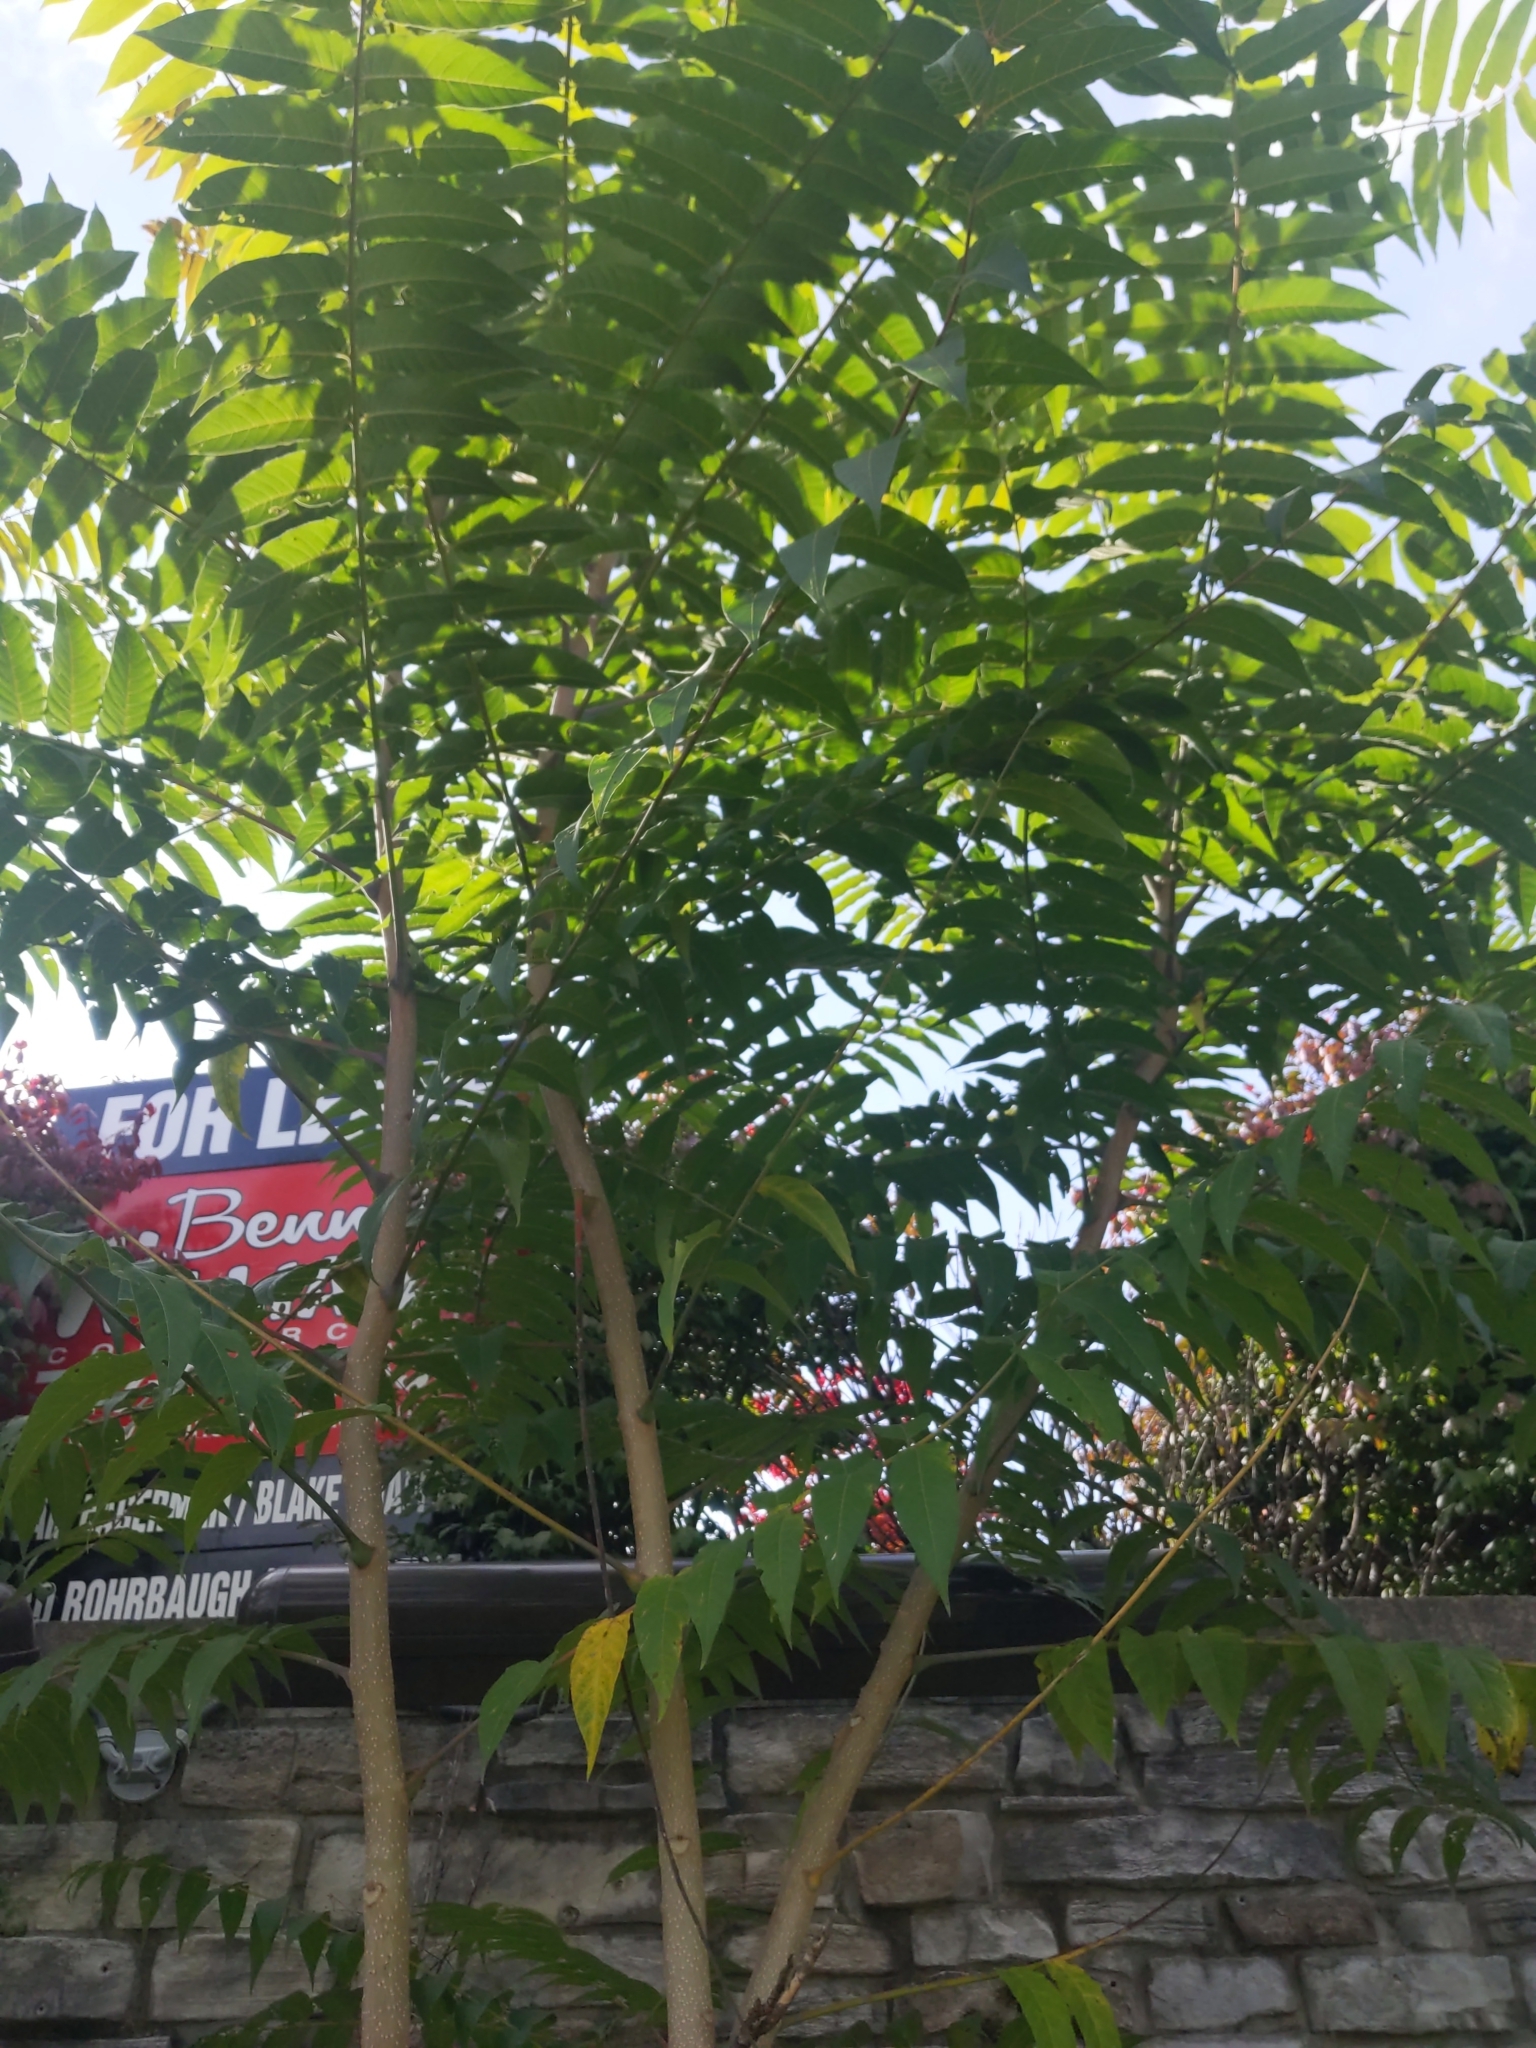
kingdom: Plantae
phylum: Tracheophyta
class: Magnoliopsida
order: Sapindales
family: Simaroubaceae
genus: Ailanthus
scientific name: Ailanthus altissima
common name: Tree-of-heaven
